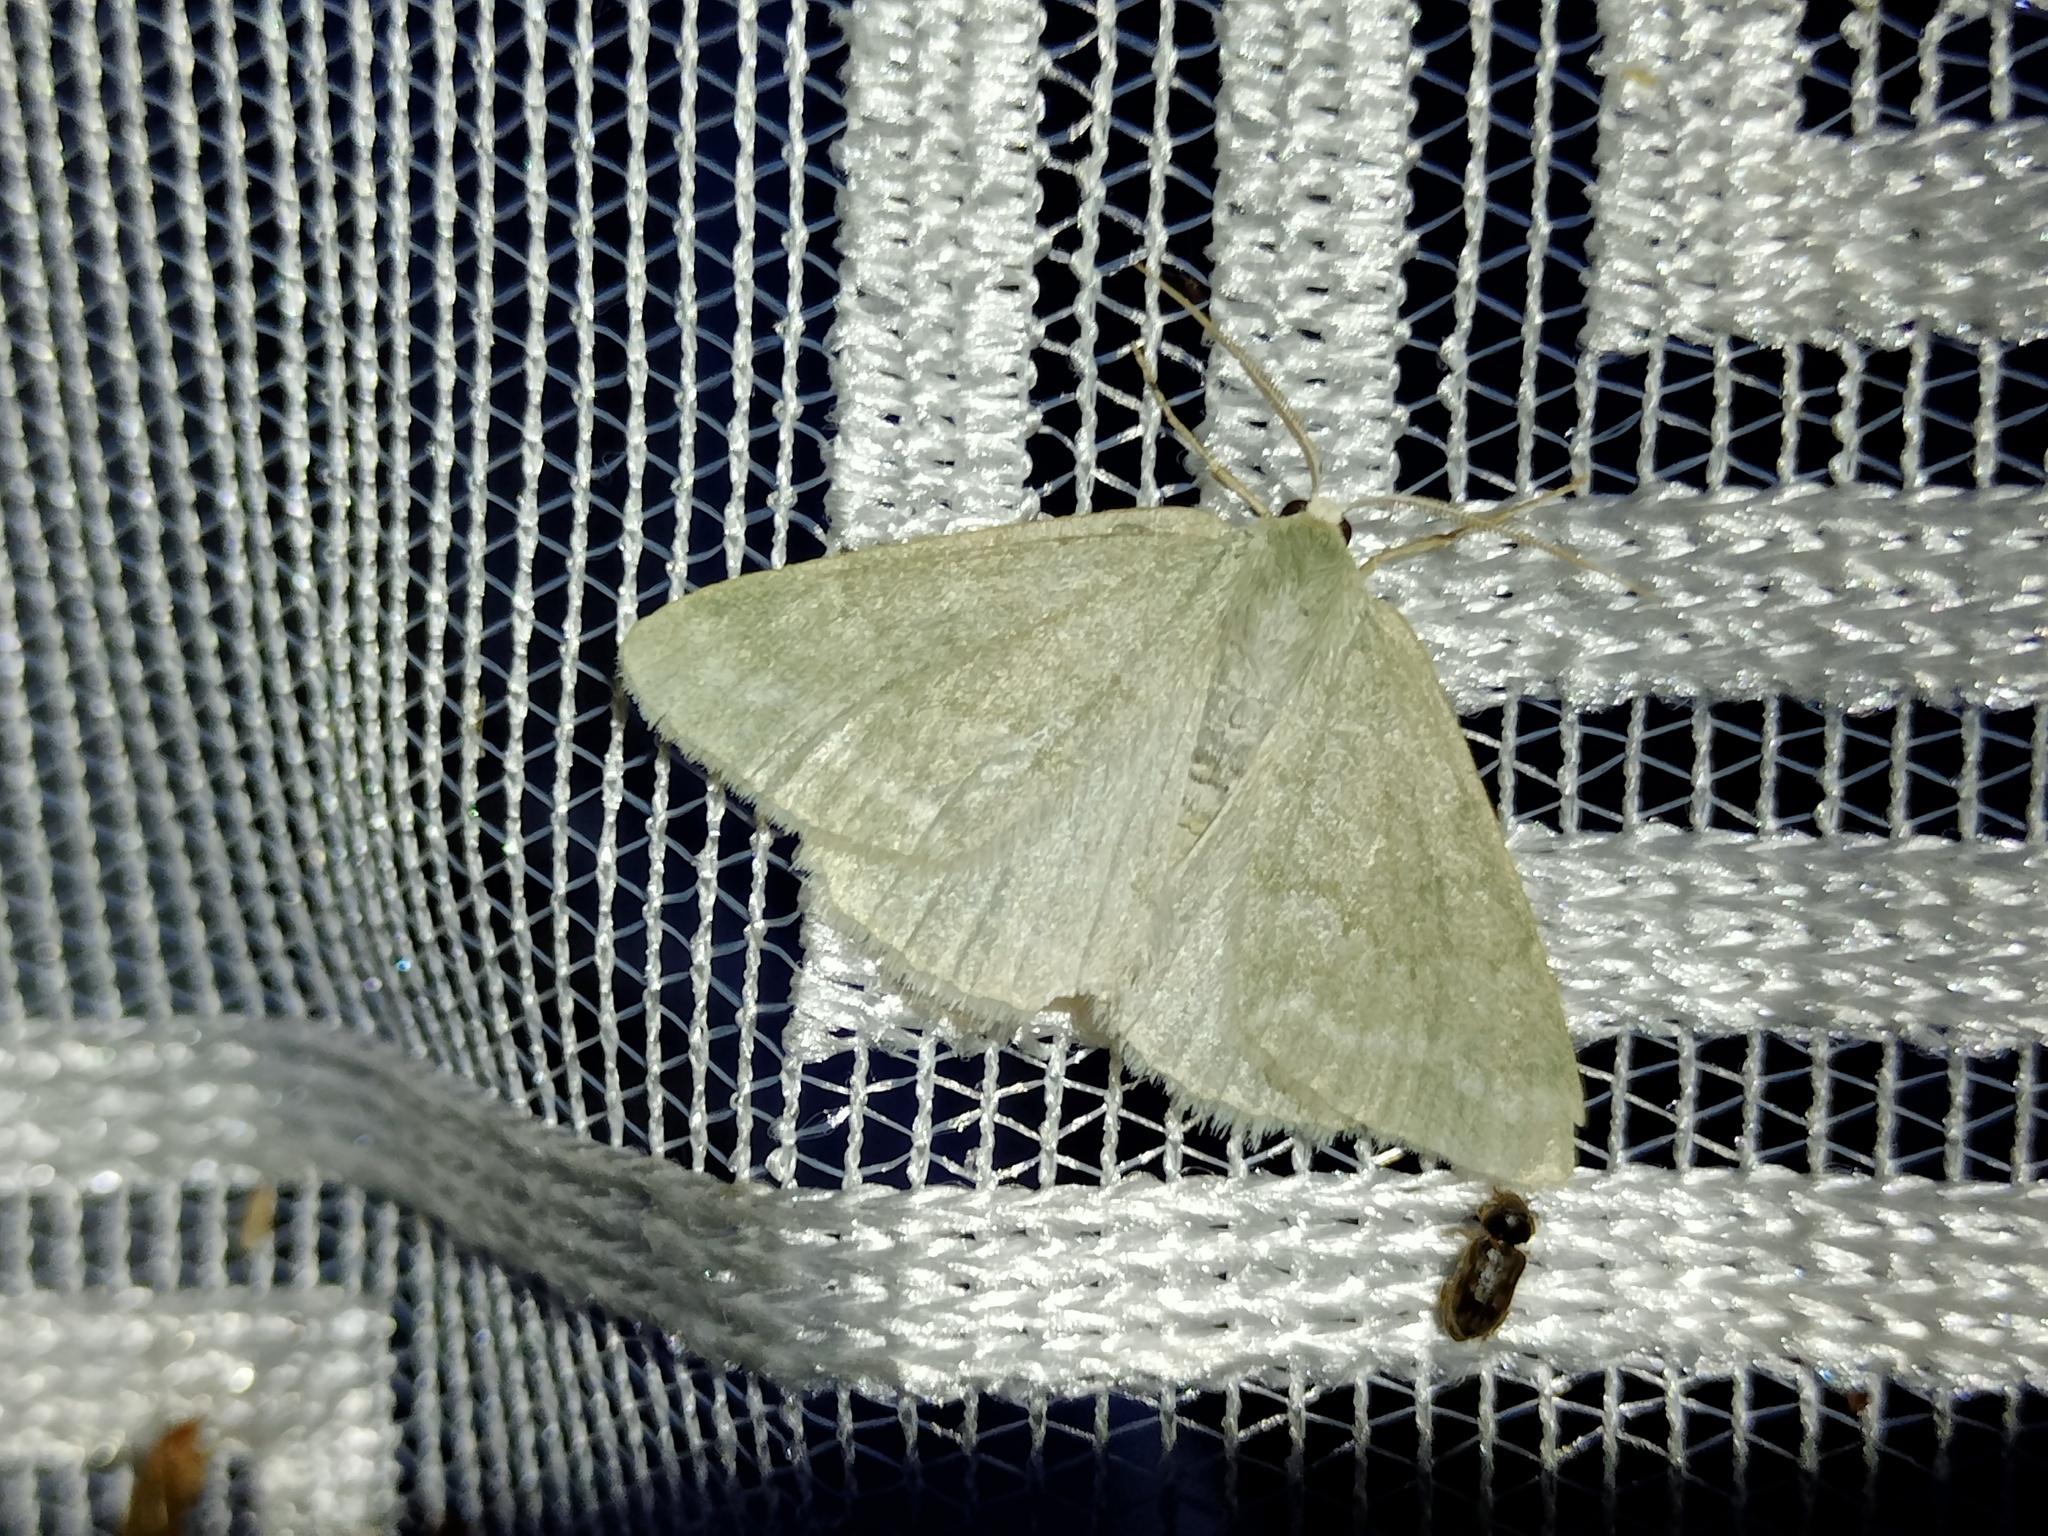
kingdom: Animalia
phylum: Arthropoda
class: Insecta
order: Lepidoptera
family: Geometridae
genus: Pseudoterpna
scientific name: Pseudoterpna pruinata
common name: Grass emerald
